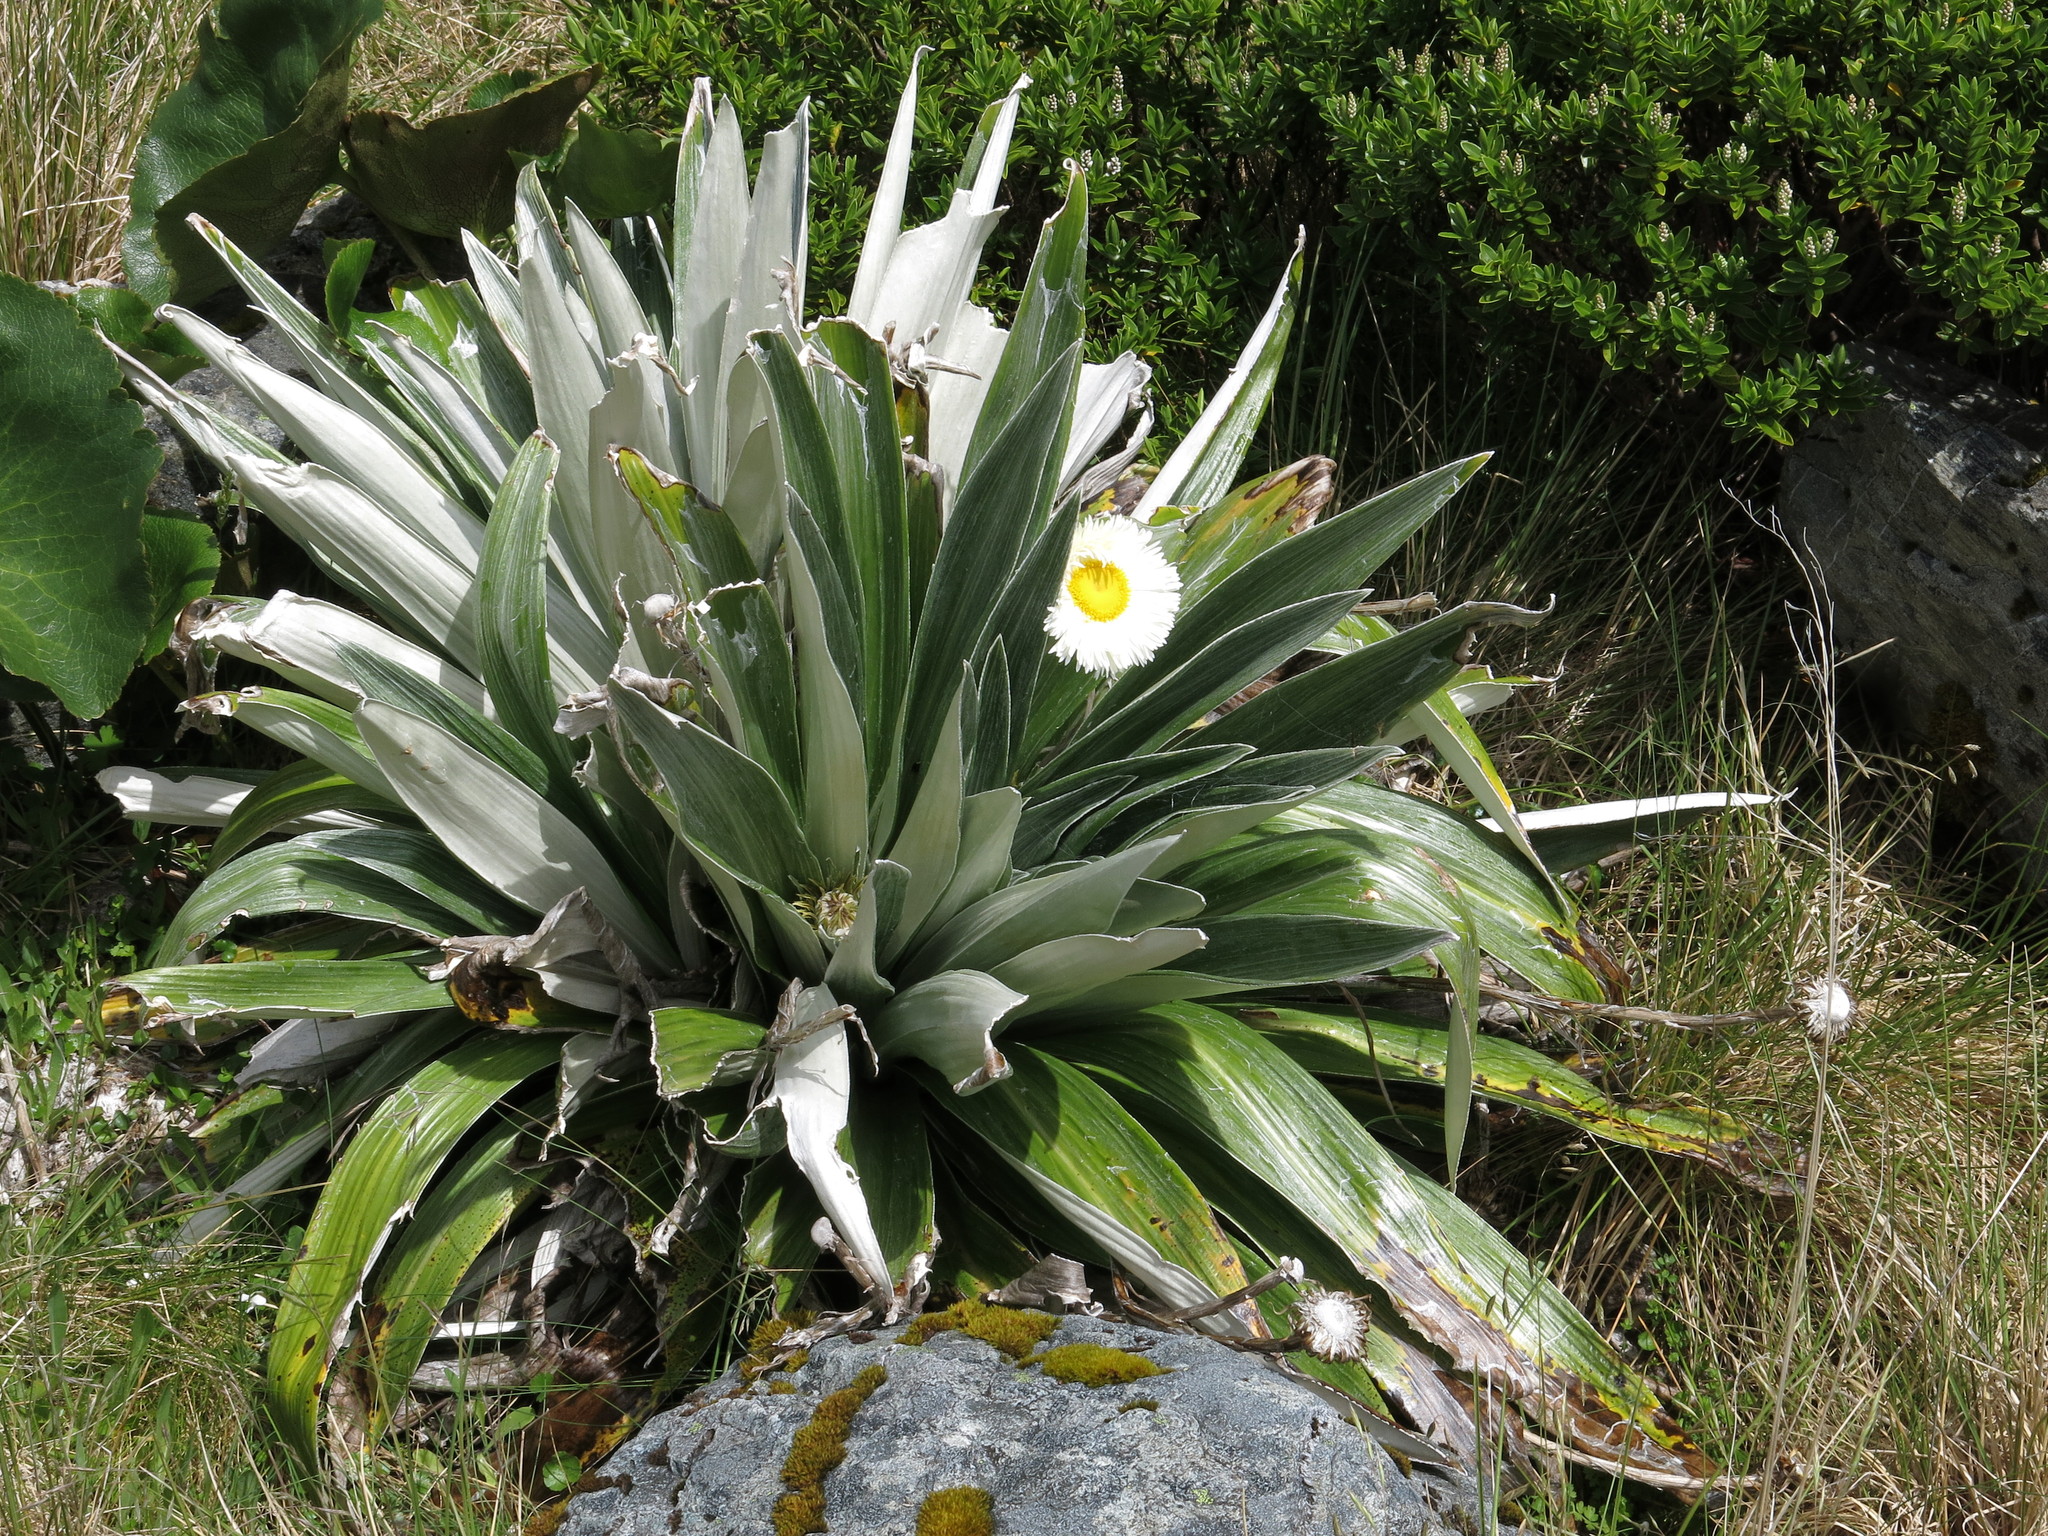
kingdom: Plantae
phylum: Tracheophyta
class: Magnoliopsida
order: Asterales
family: Asteraceae
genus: Celmisia
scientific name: Celmisia semicordata
